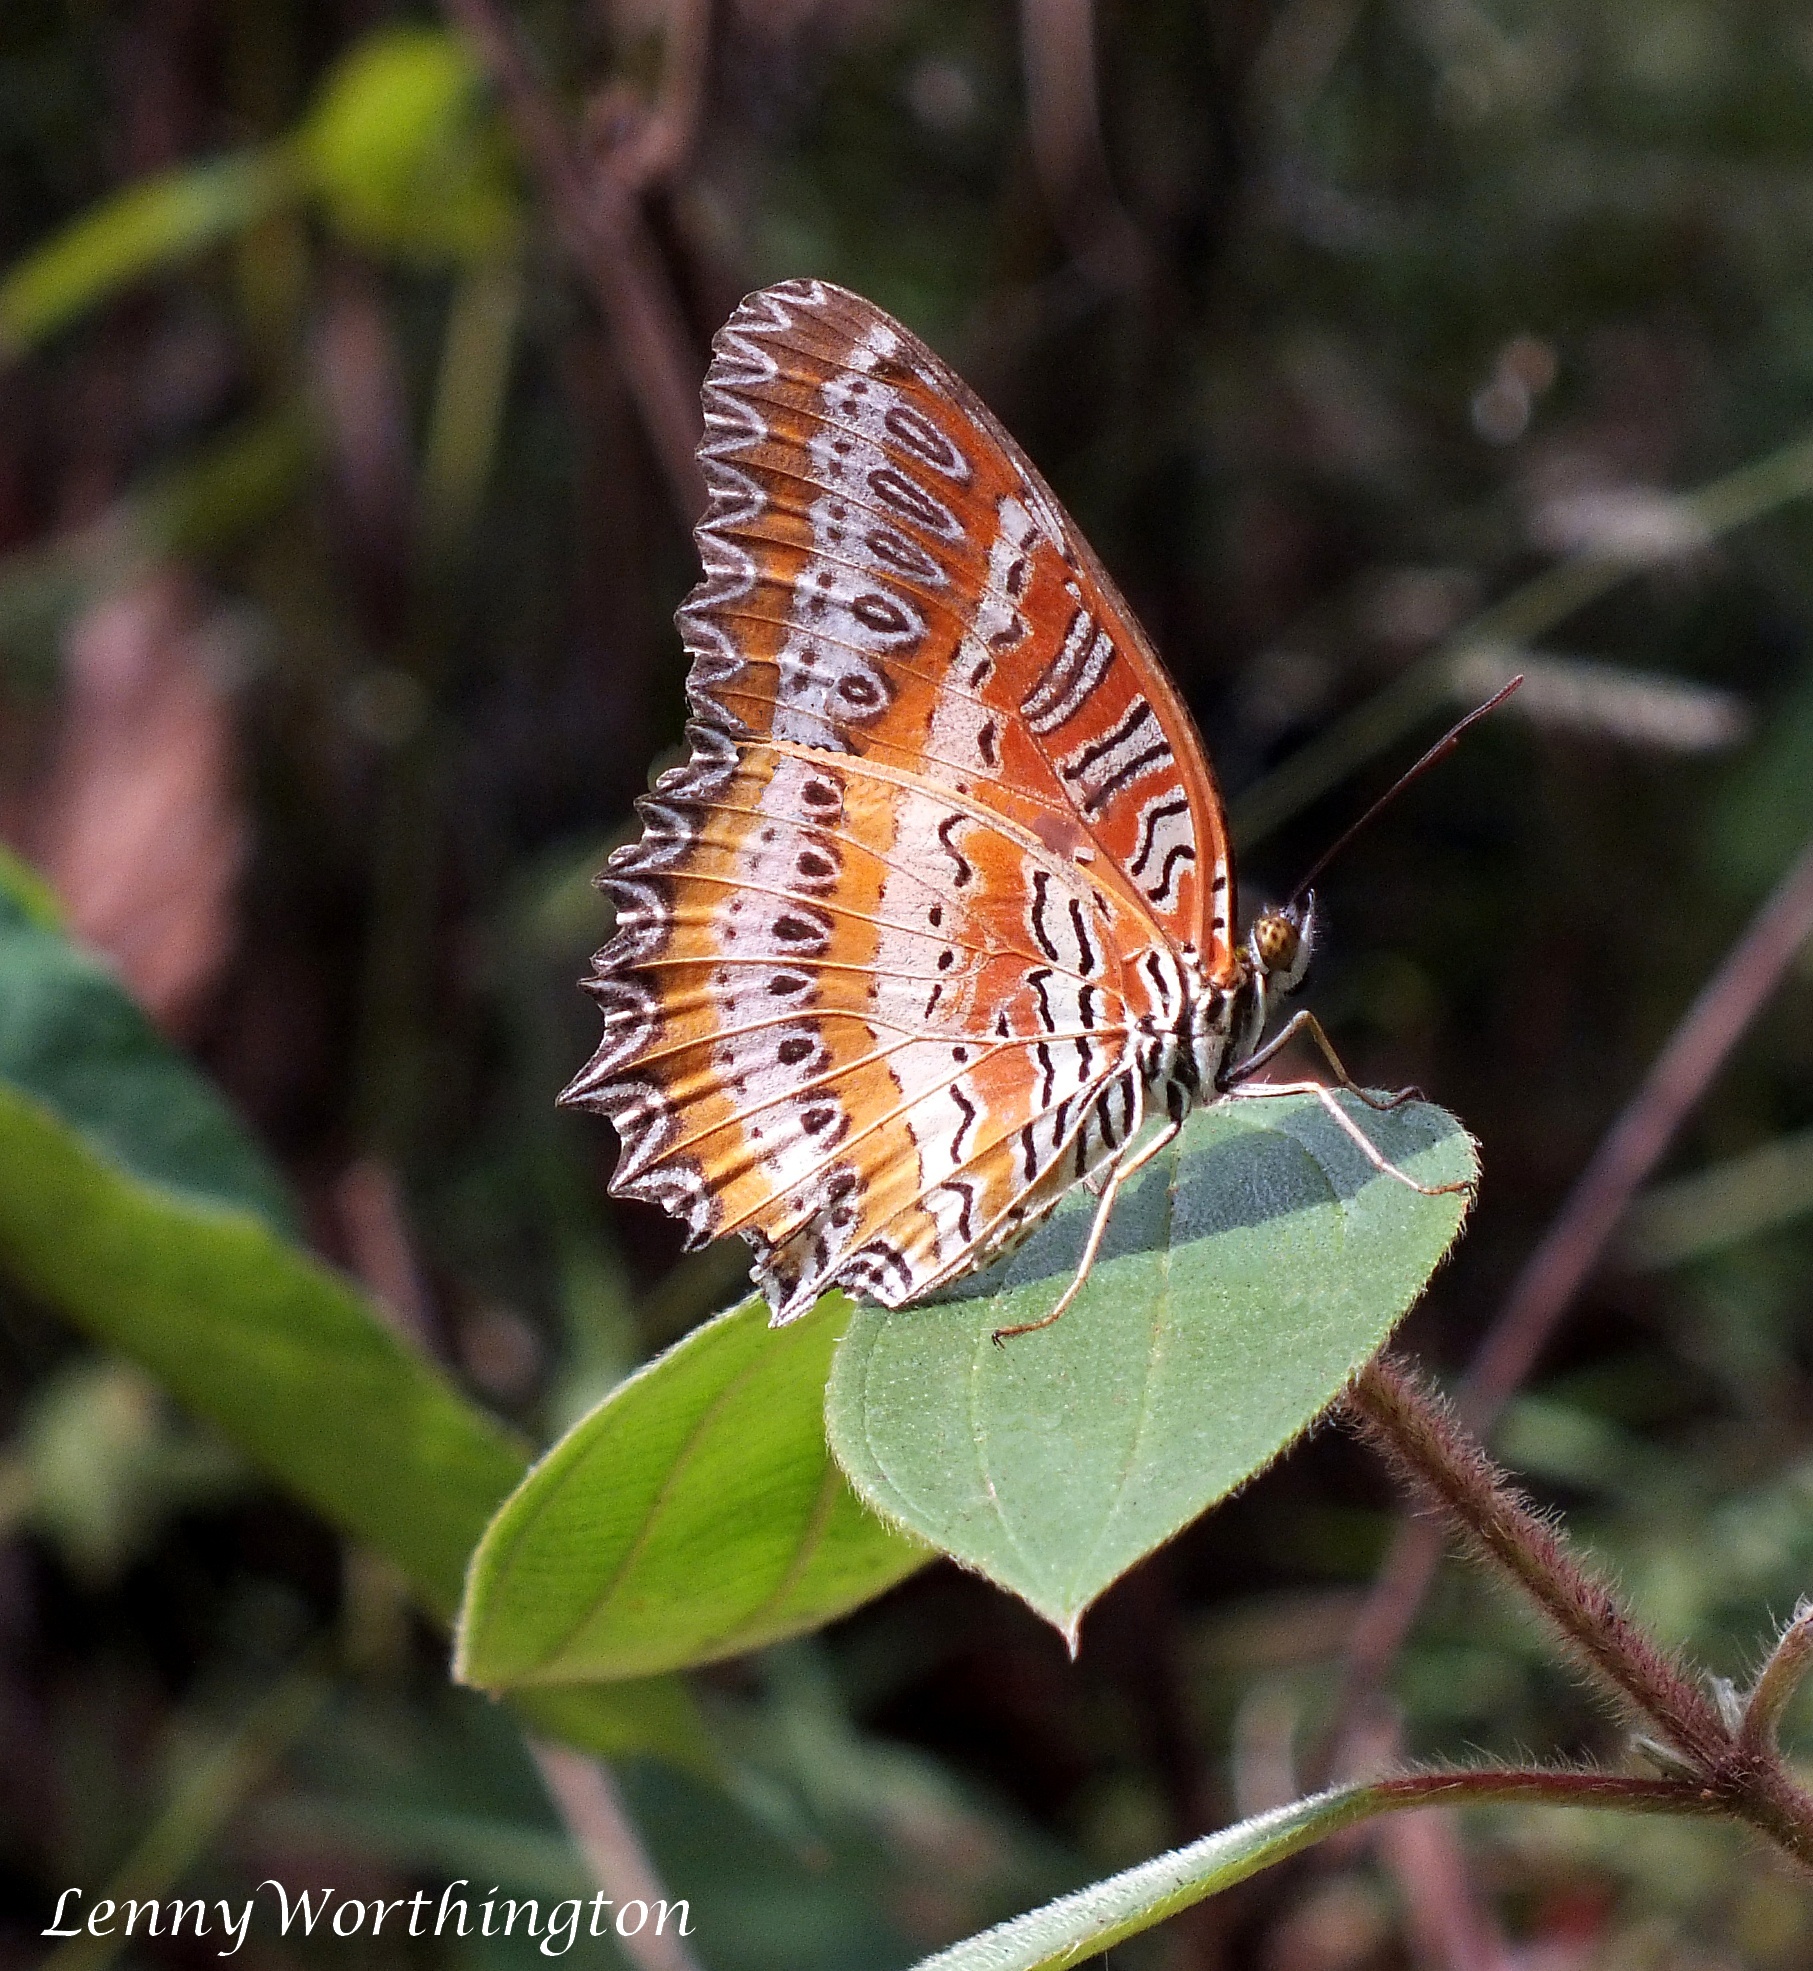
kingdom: Animalia
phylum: Arthropoda
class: Insecta
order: Lepidoptera
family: Nymphalidae
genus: Cethosia
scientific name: Cethosia biblis
